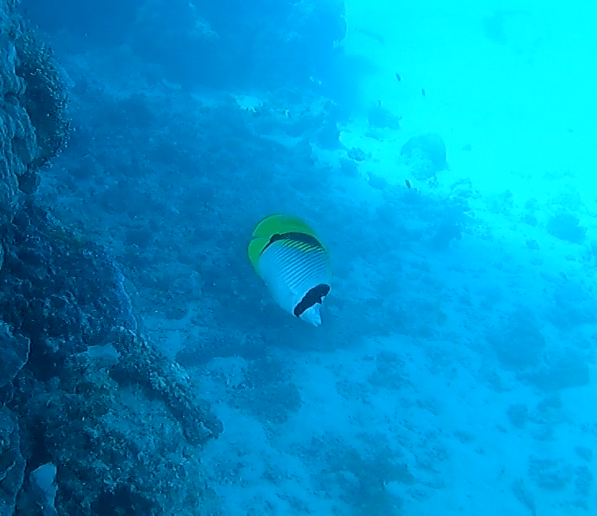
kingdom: Animalia
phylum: Chordata
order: Perciformes
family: Chaetodontidae
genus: Chaetodon
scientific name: Chaetodon lineolatus
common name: Lined butterflyfish
